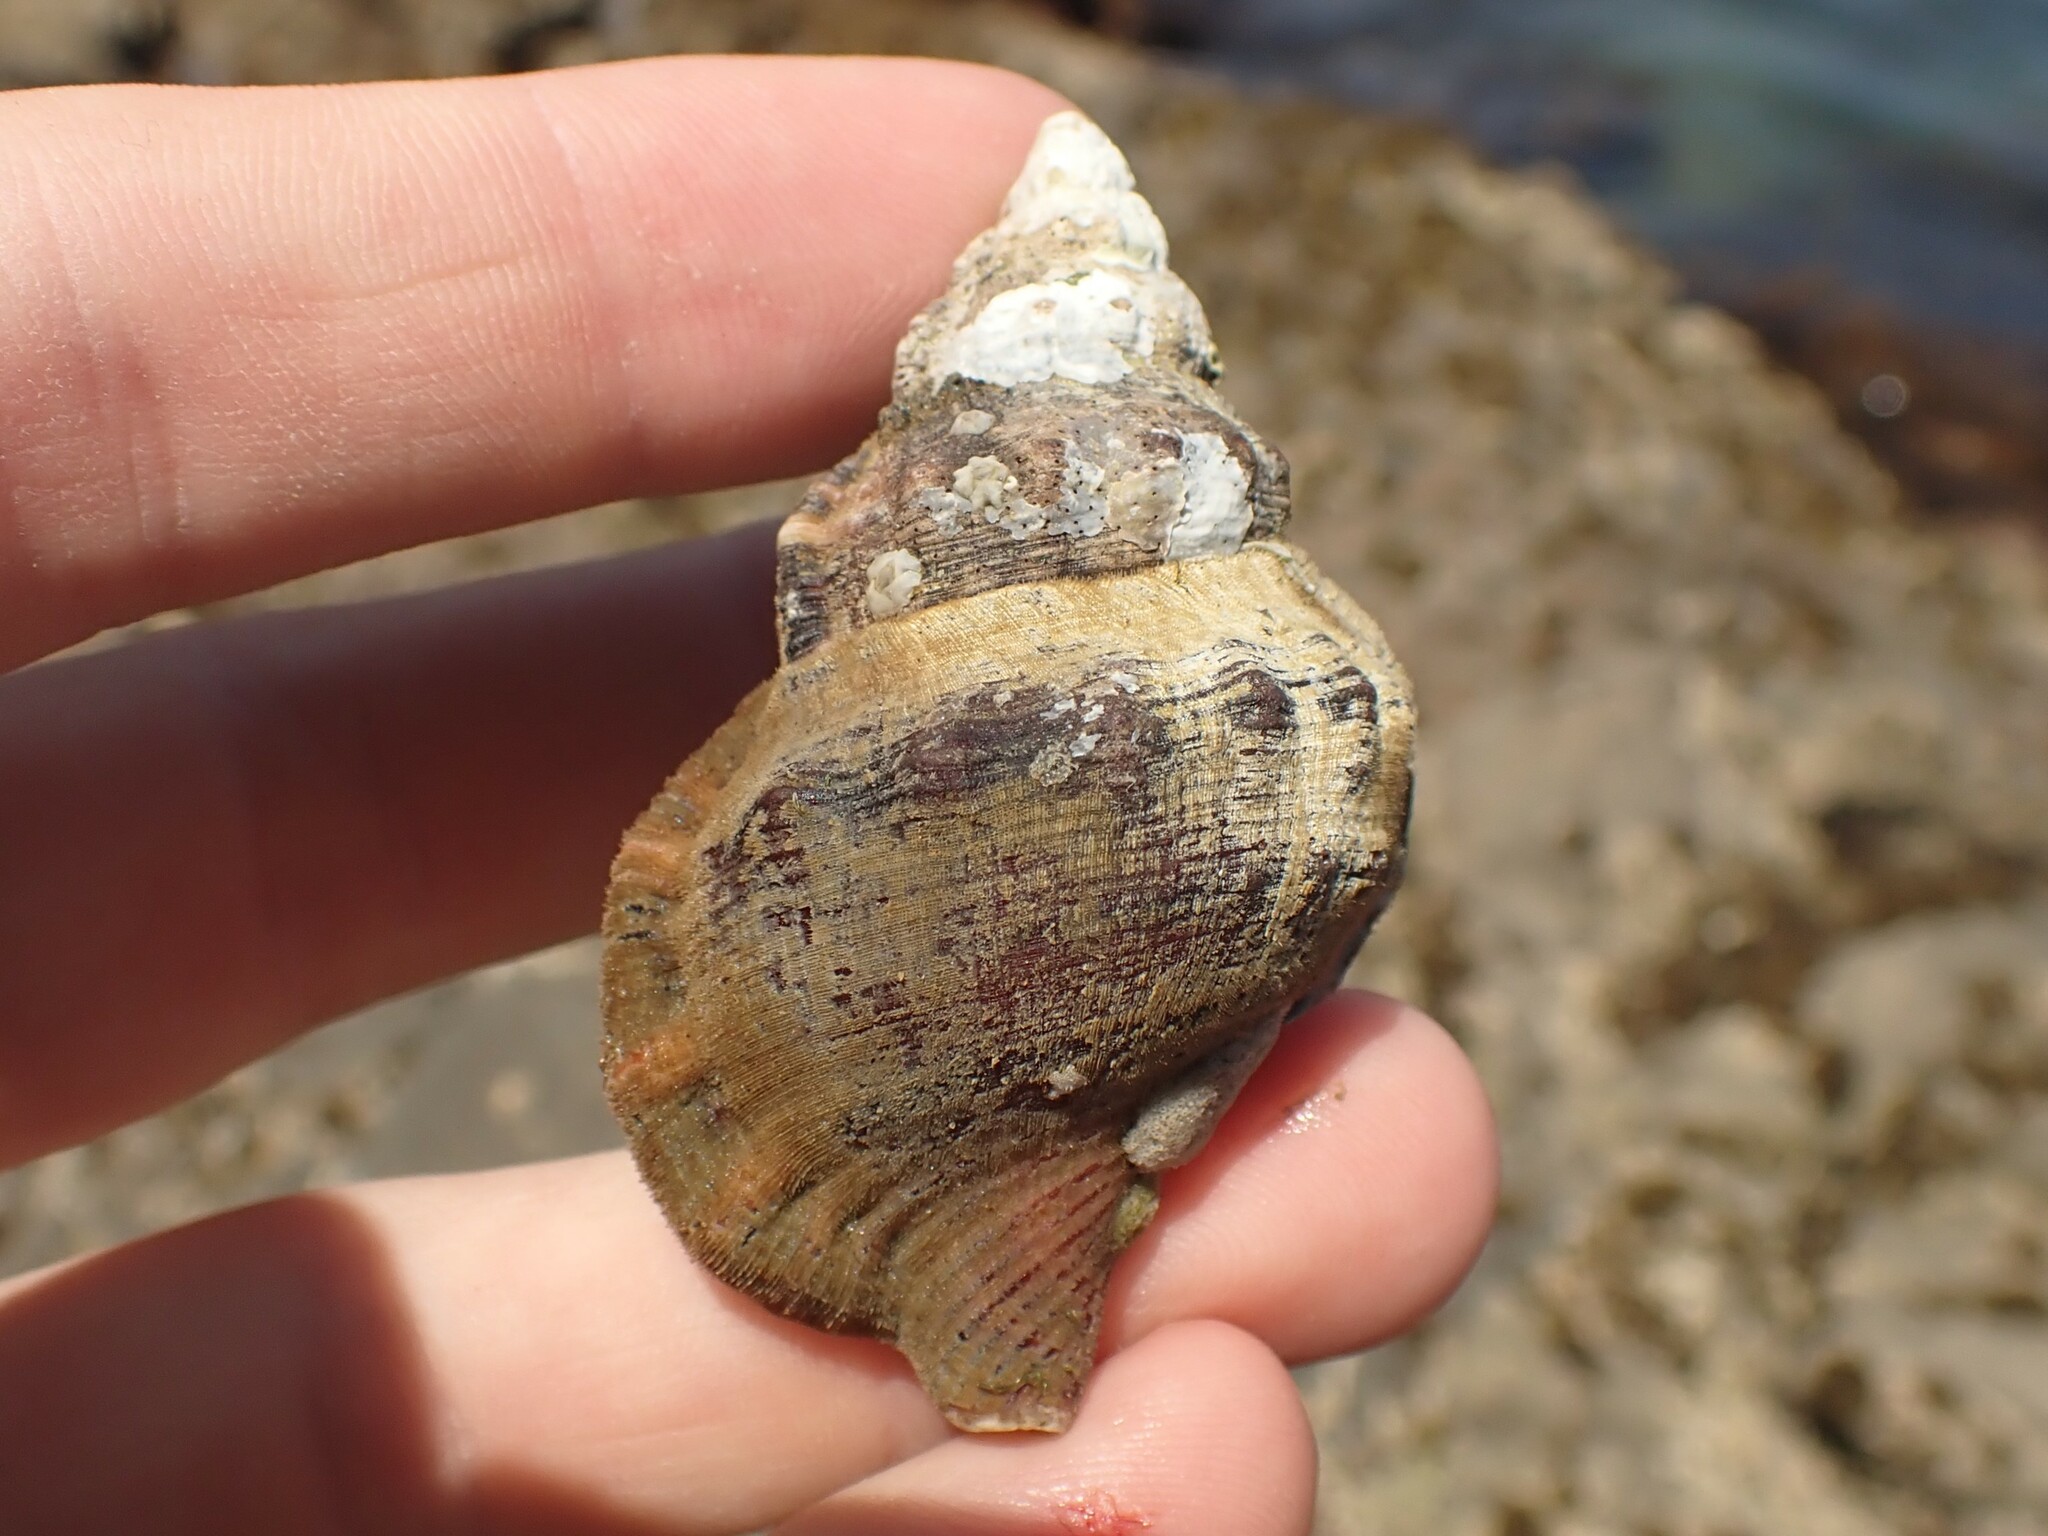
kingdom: Animalia
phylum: Mollusca
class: Gastropoda
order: Littorinimorpha
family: Ranellidae
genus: Ranella
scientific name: Ranella australasia
